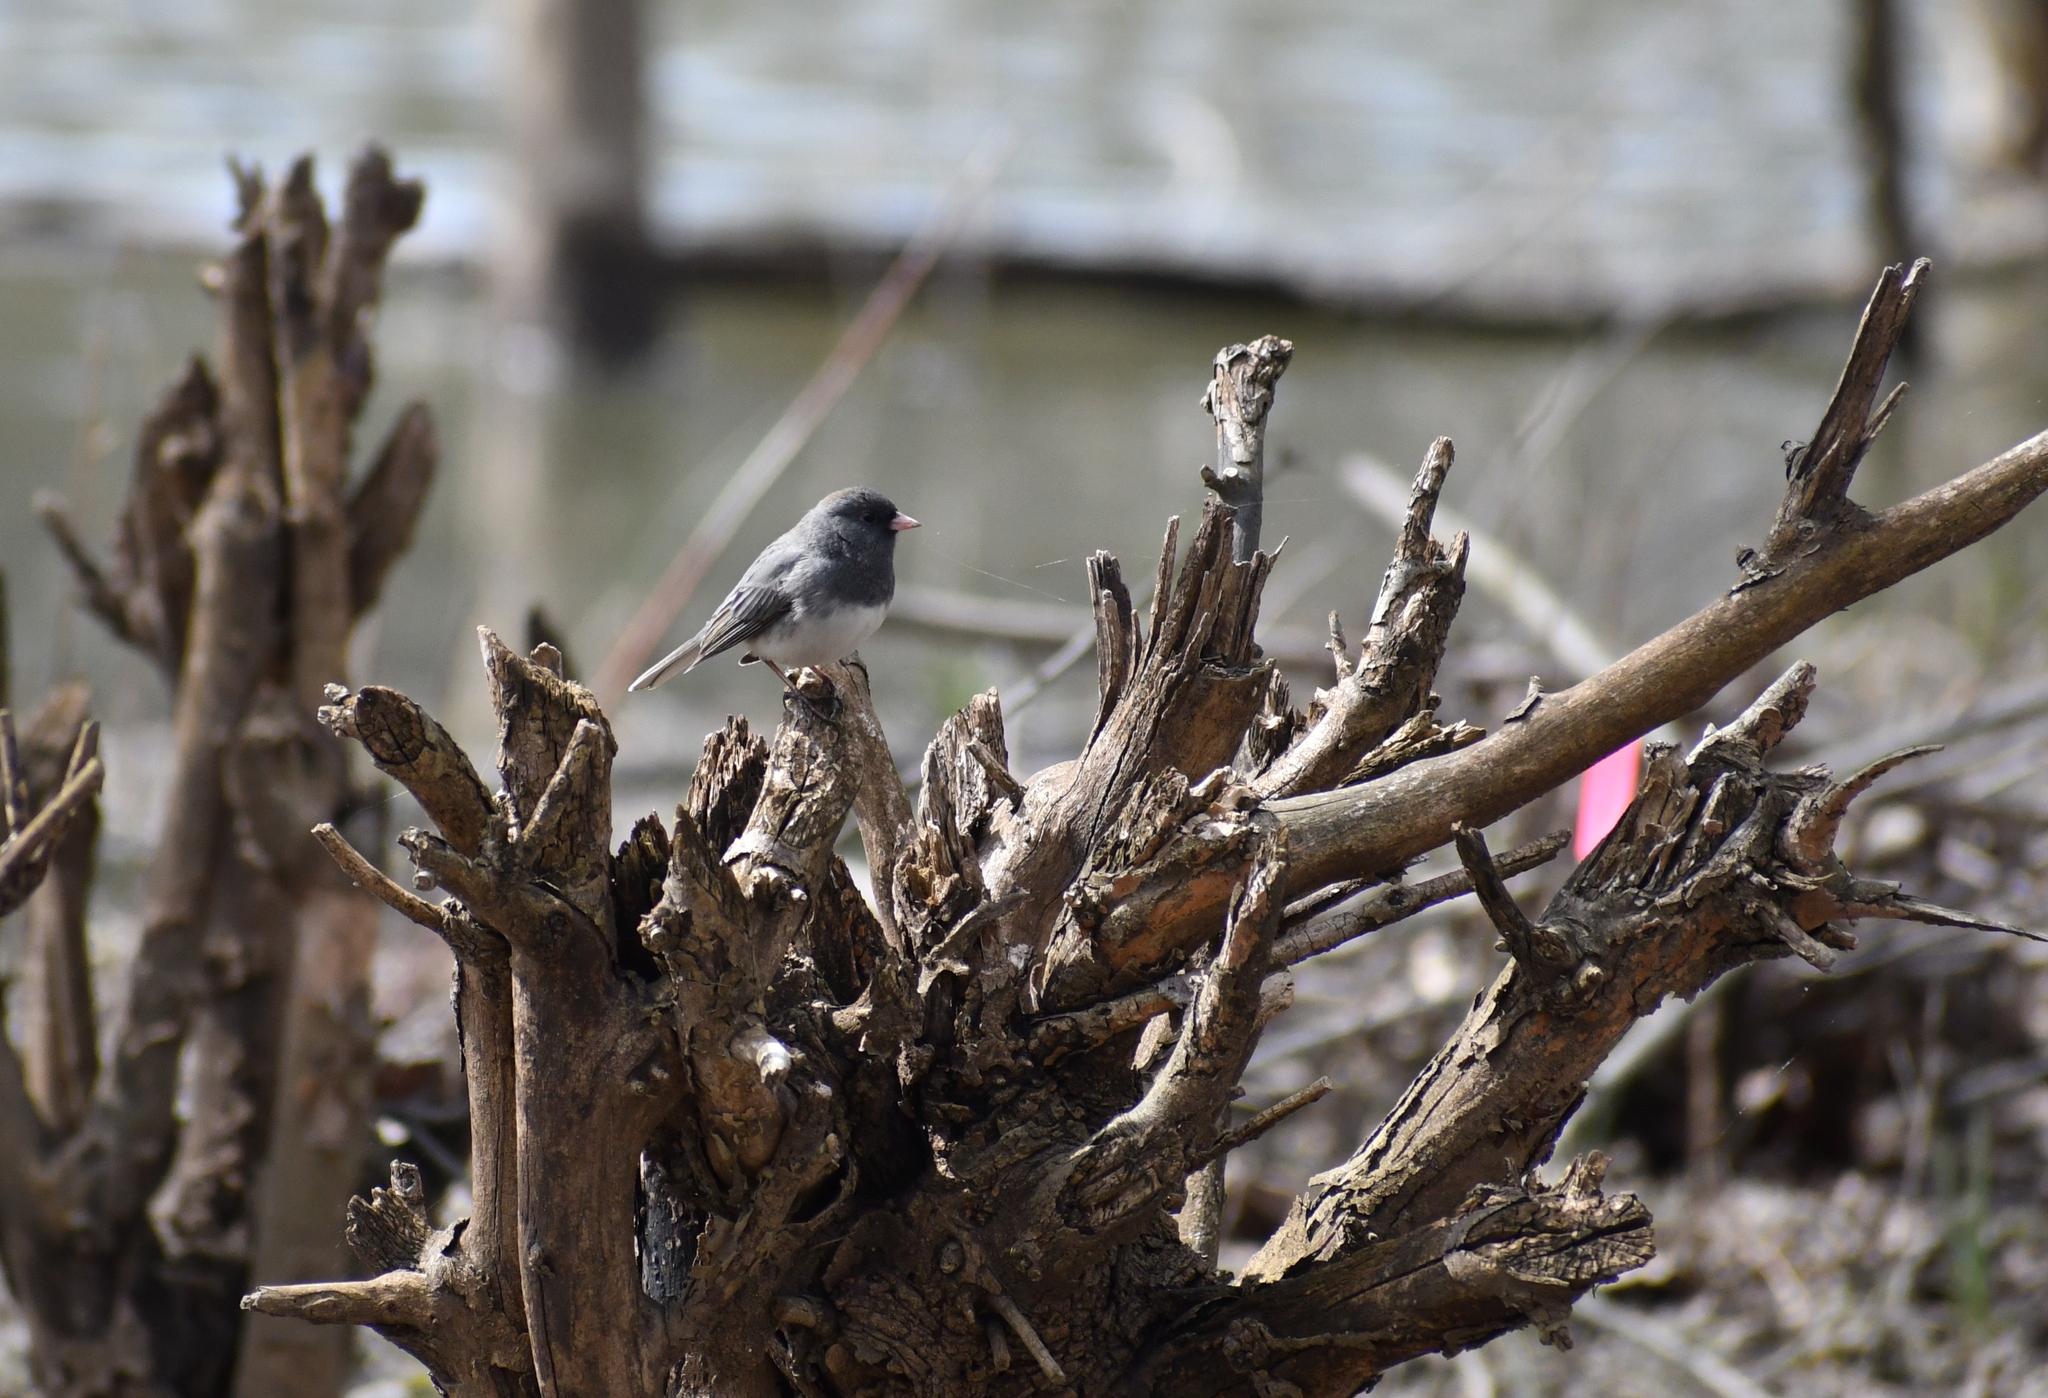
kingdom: Animalia
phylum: Chordata
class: Aves
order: Passeriformes
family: Passerellidae
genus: Junco
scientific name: Junco hyemalis
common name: Dark-eyed junco
